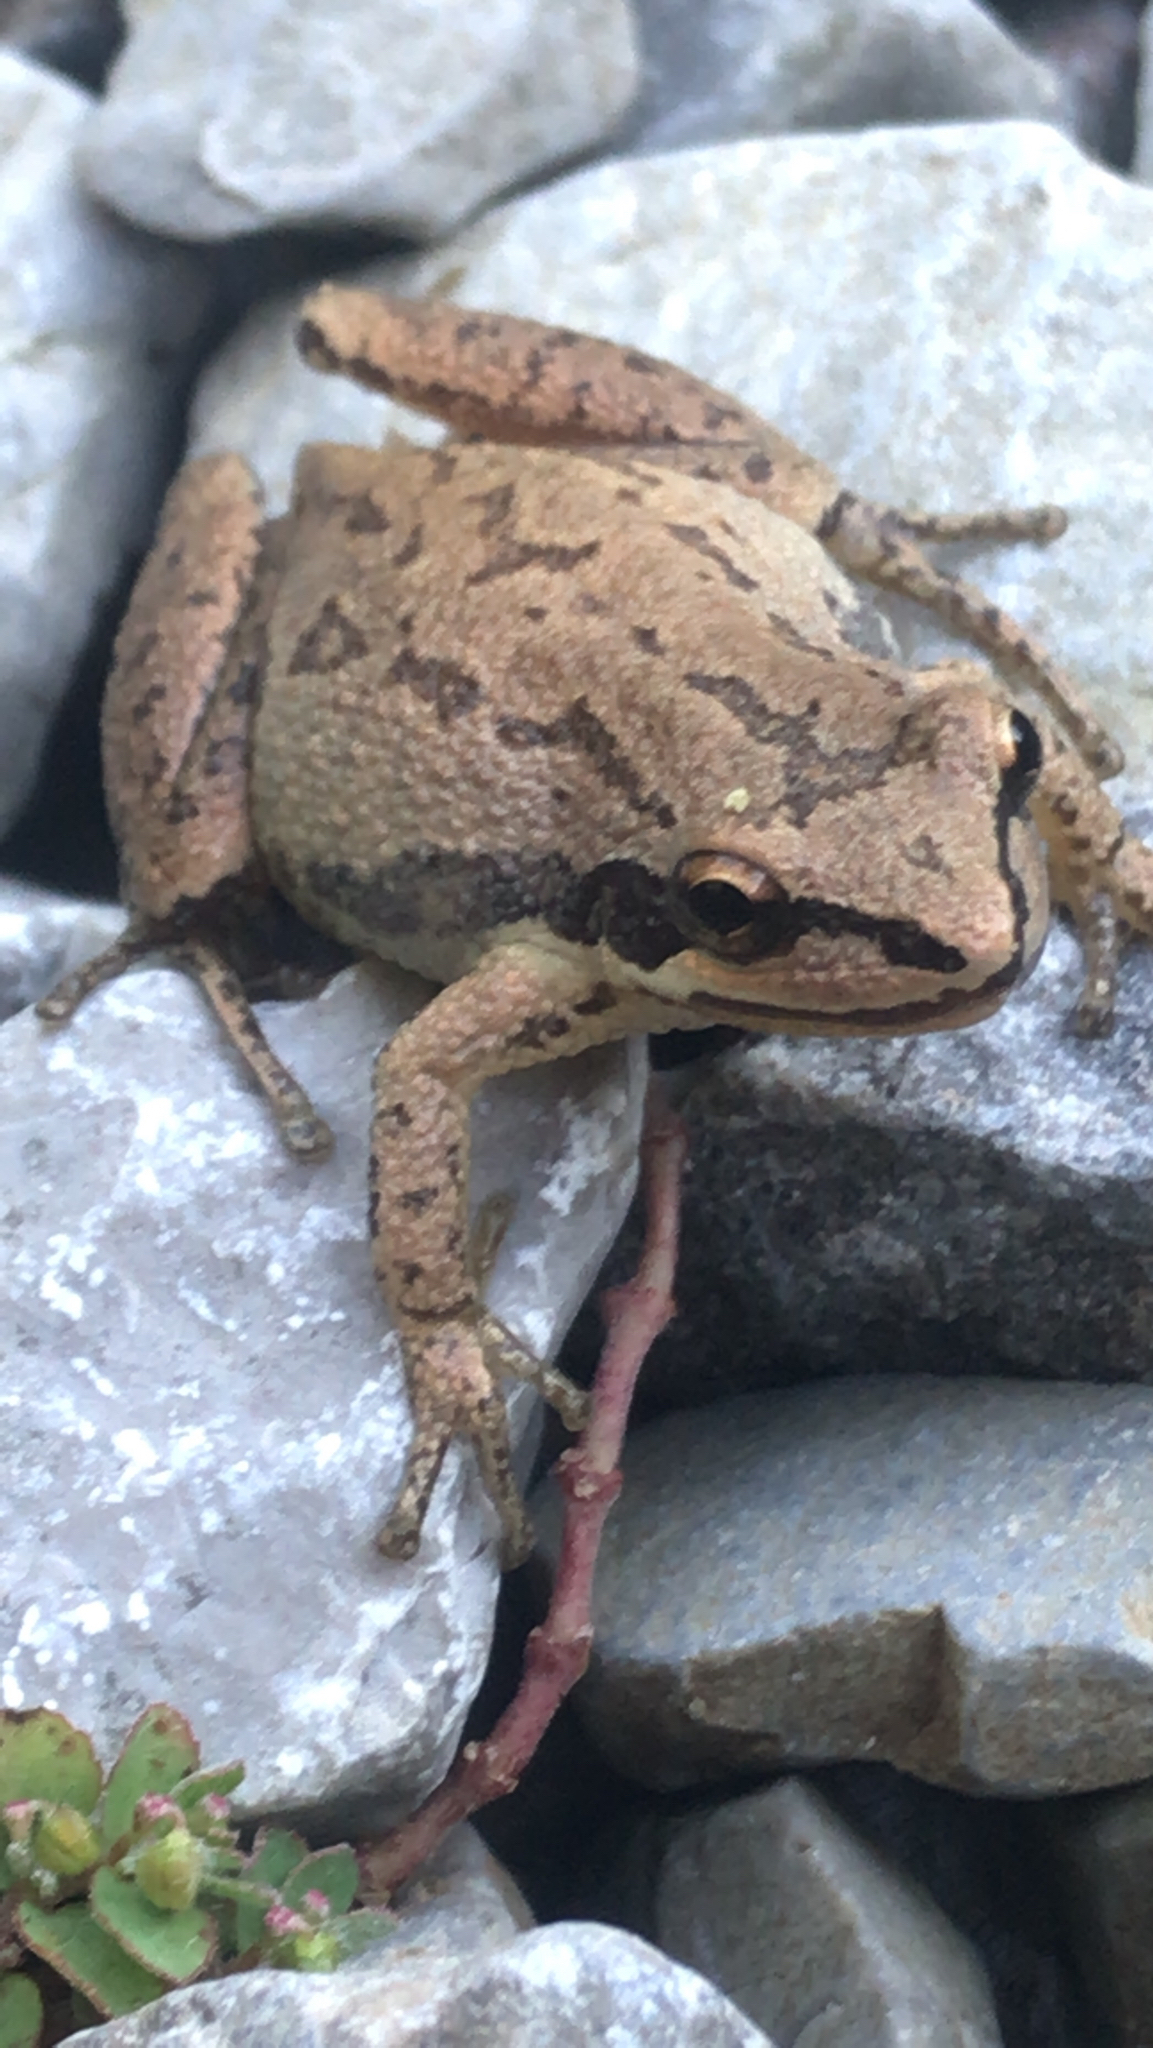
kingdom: Animalia
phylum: Chordata
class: Amphibia
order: Anura
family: Hylidae
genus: Pseudacris
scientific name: Pseudacris feriarum
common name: Upland chorus frog
